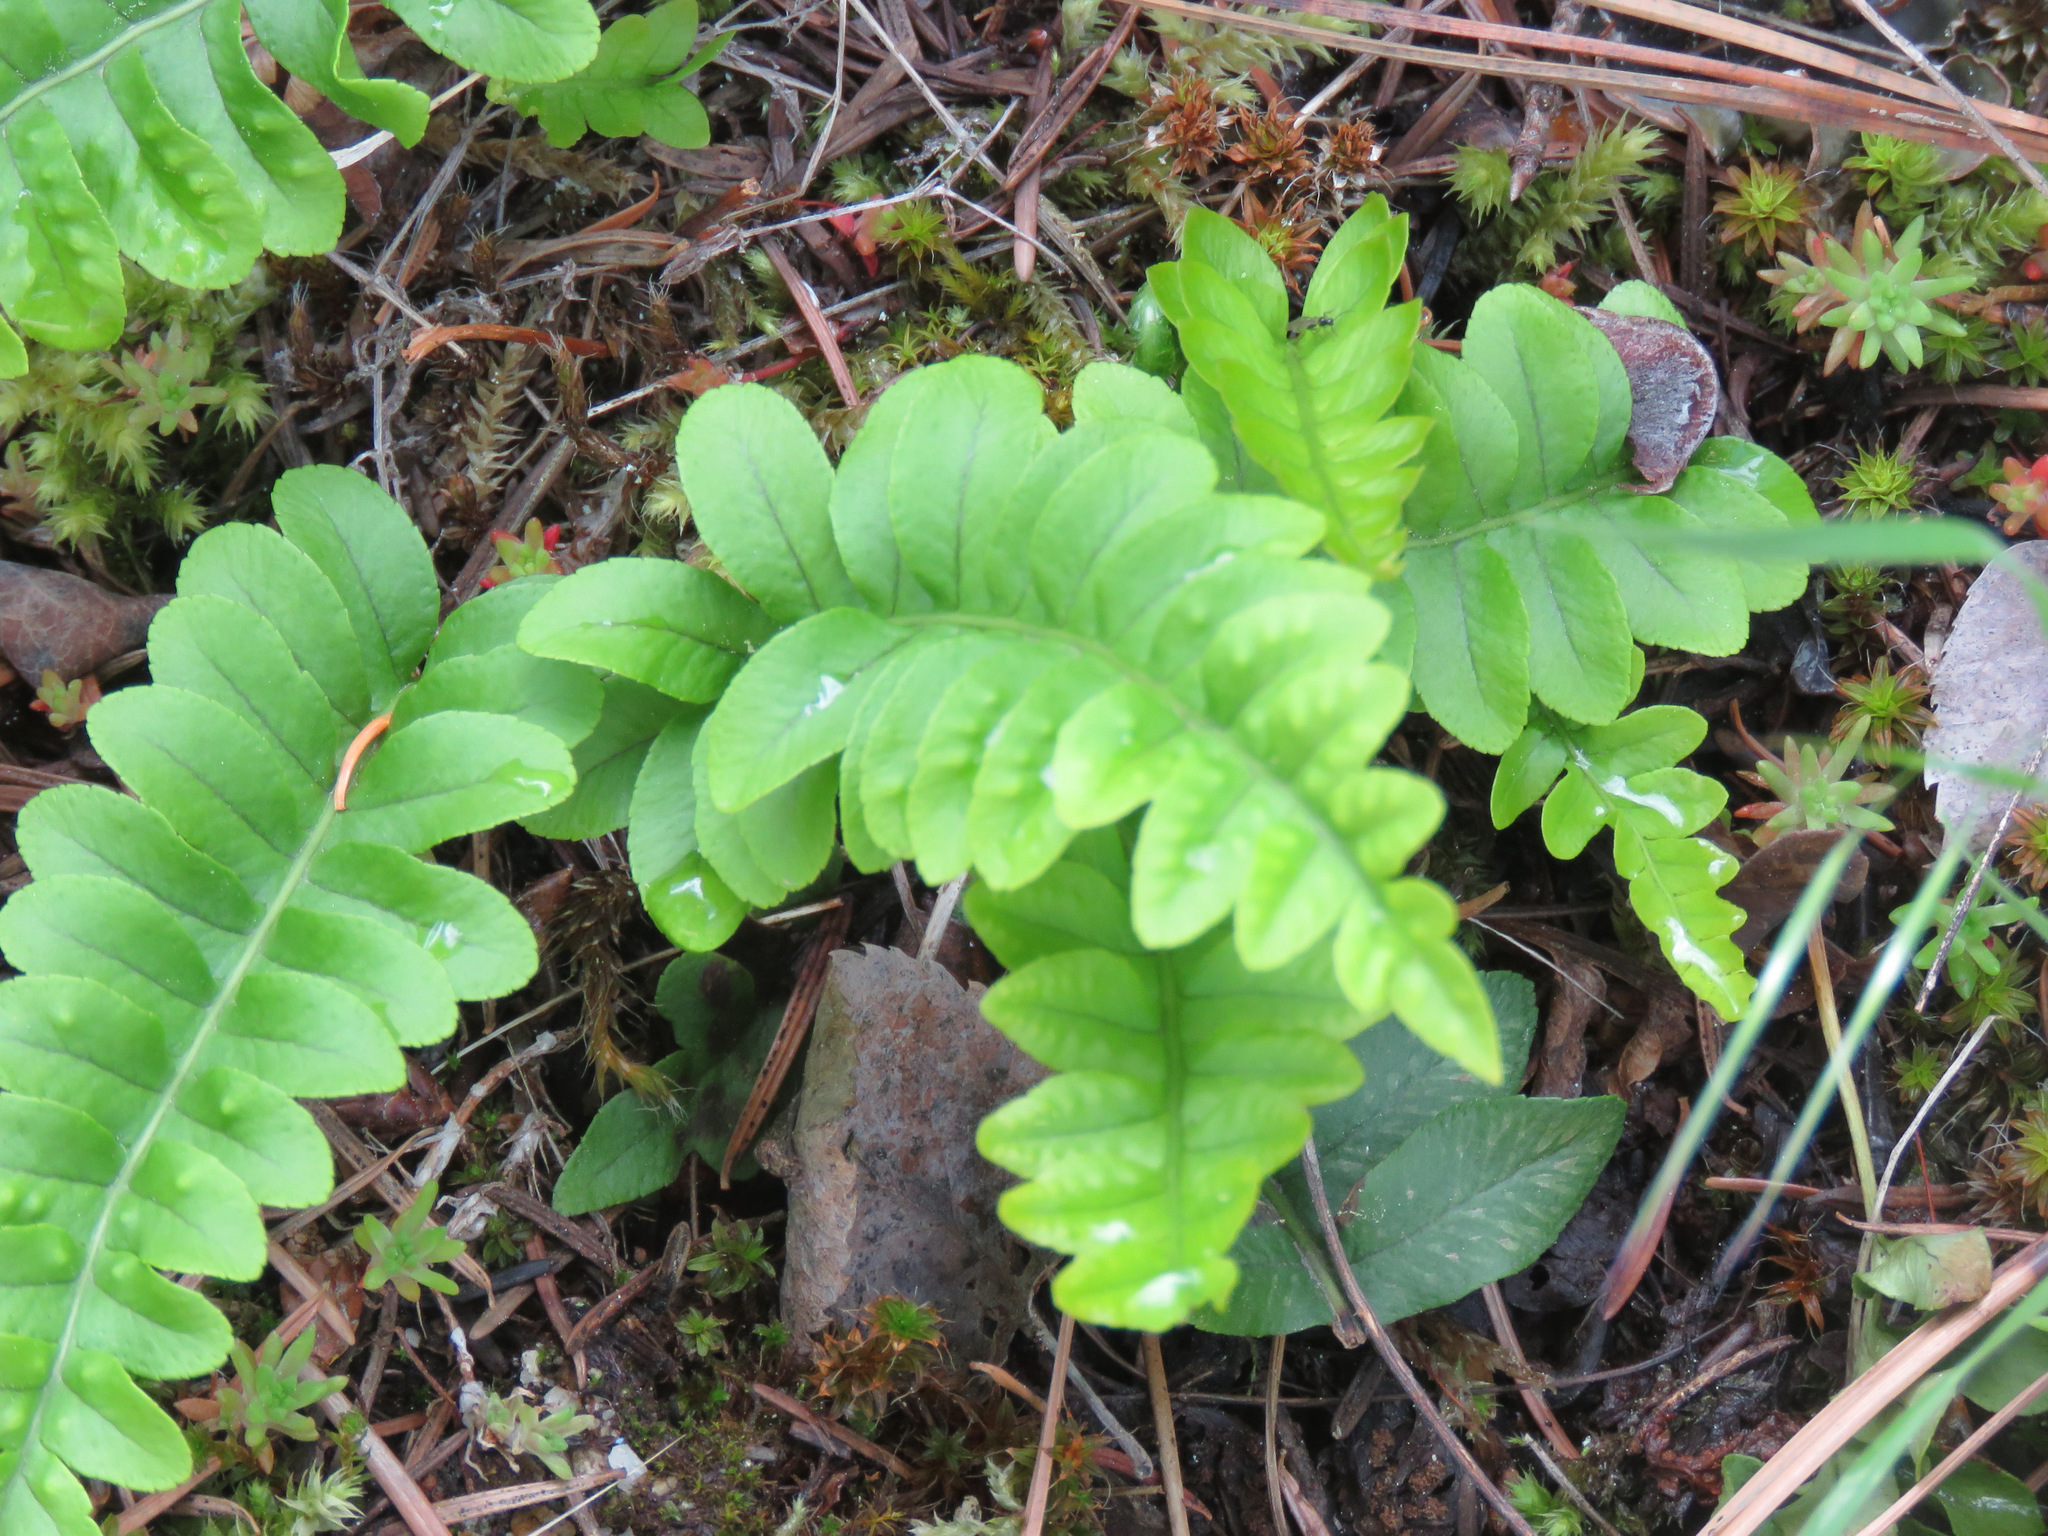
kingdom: Plantae
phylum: Tracheophyta
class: Polypodiopsida
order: Polypodiales
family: Polypodiaceae
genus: Polypodium
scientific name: Polypodium hesperium
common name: Western polypody
